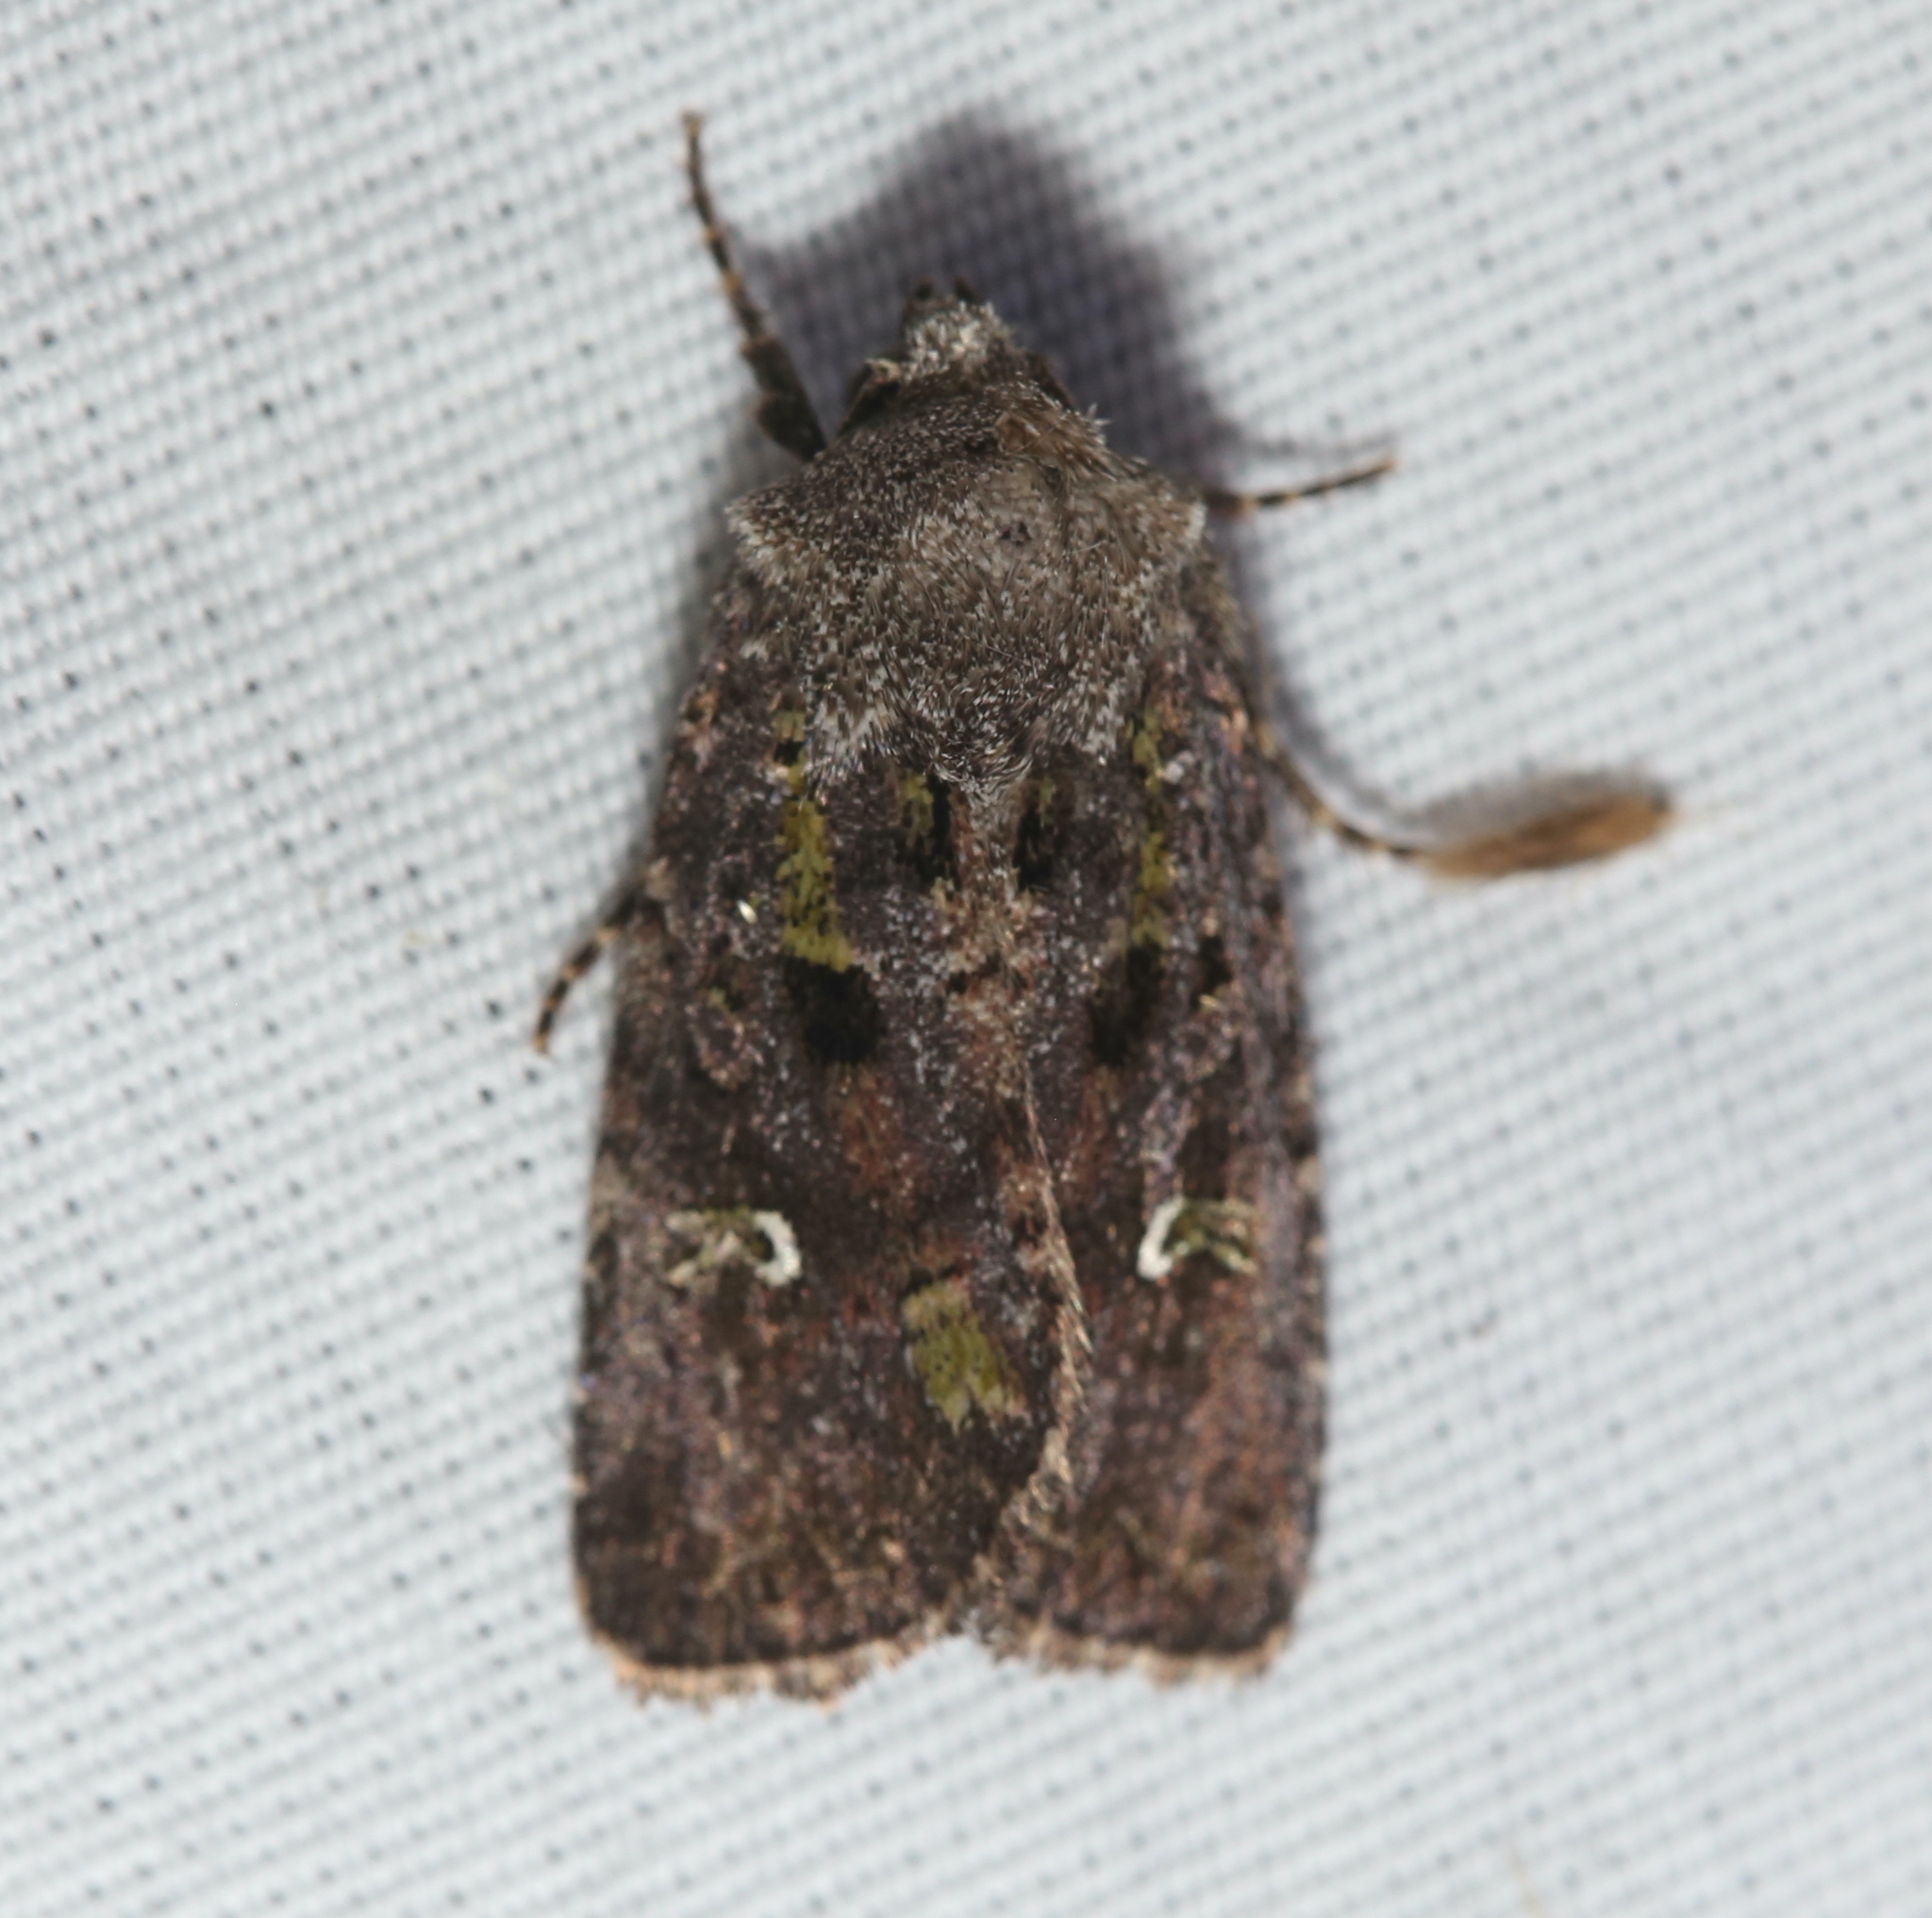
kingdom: Animalia
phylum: Arthropoda
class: Insecta
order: Lepidoptera
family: Noctuidae
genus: Lacinipolia
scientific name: Lacinipolia renigera
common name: Kidney-spotted minor
